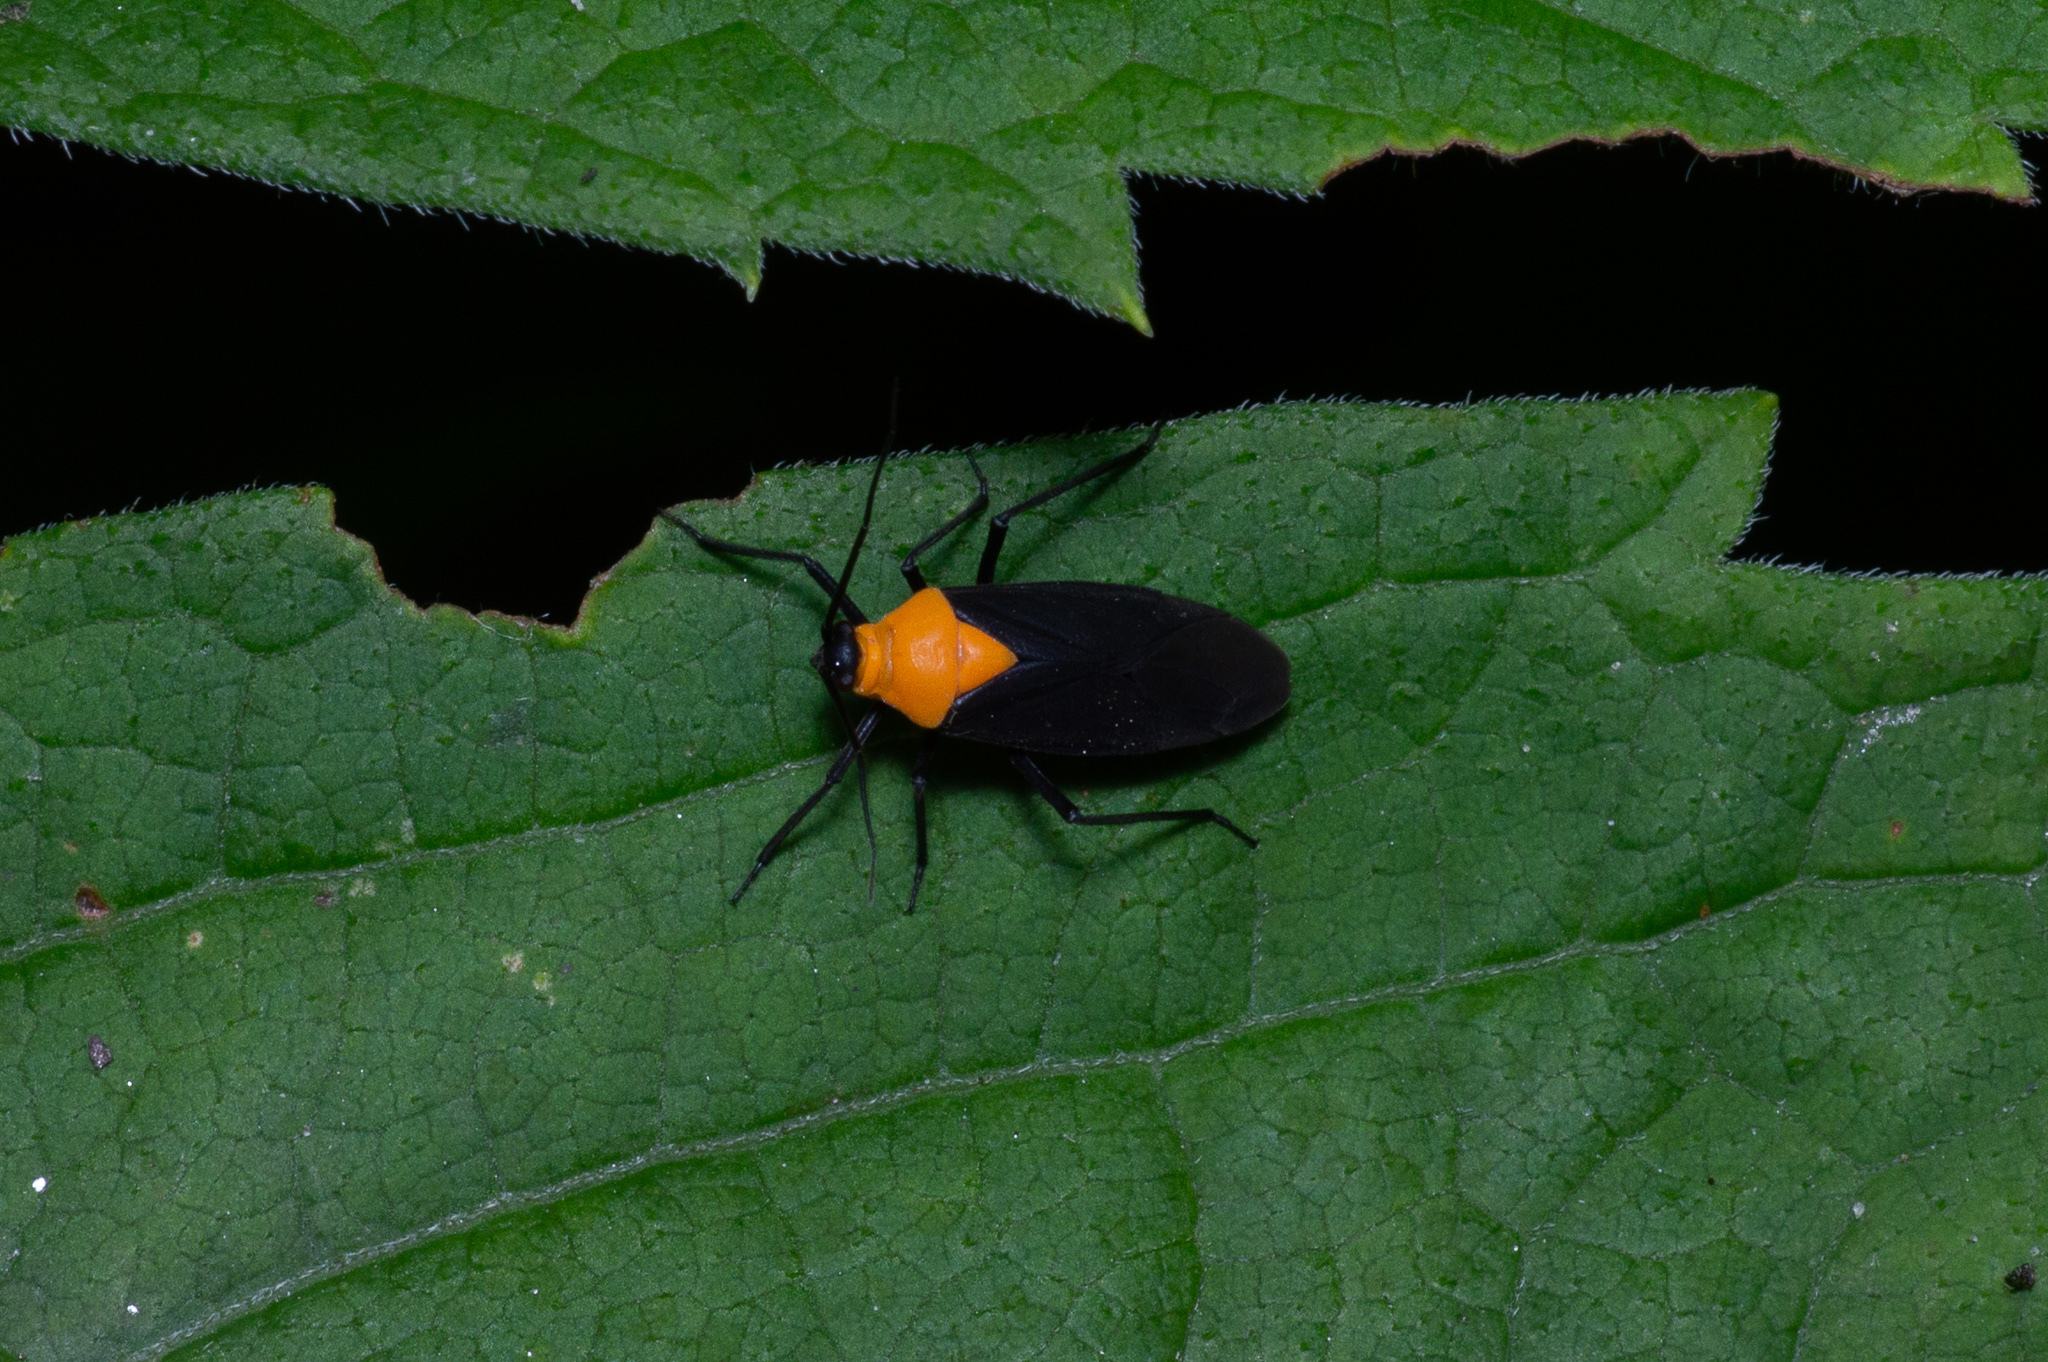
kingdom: Animalia
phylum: Arthropoda
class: Insecta
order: Hemiptera
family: Miridae
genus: Prepops
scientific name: Prepops insitivus
